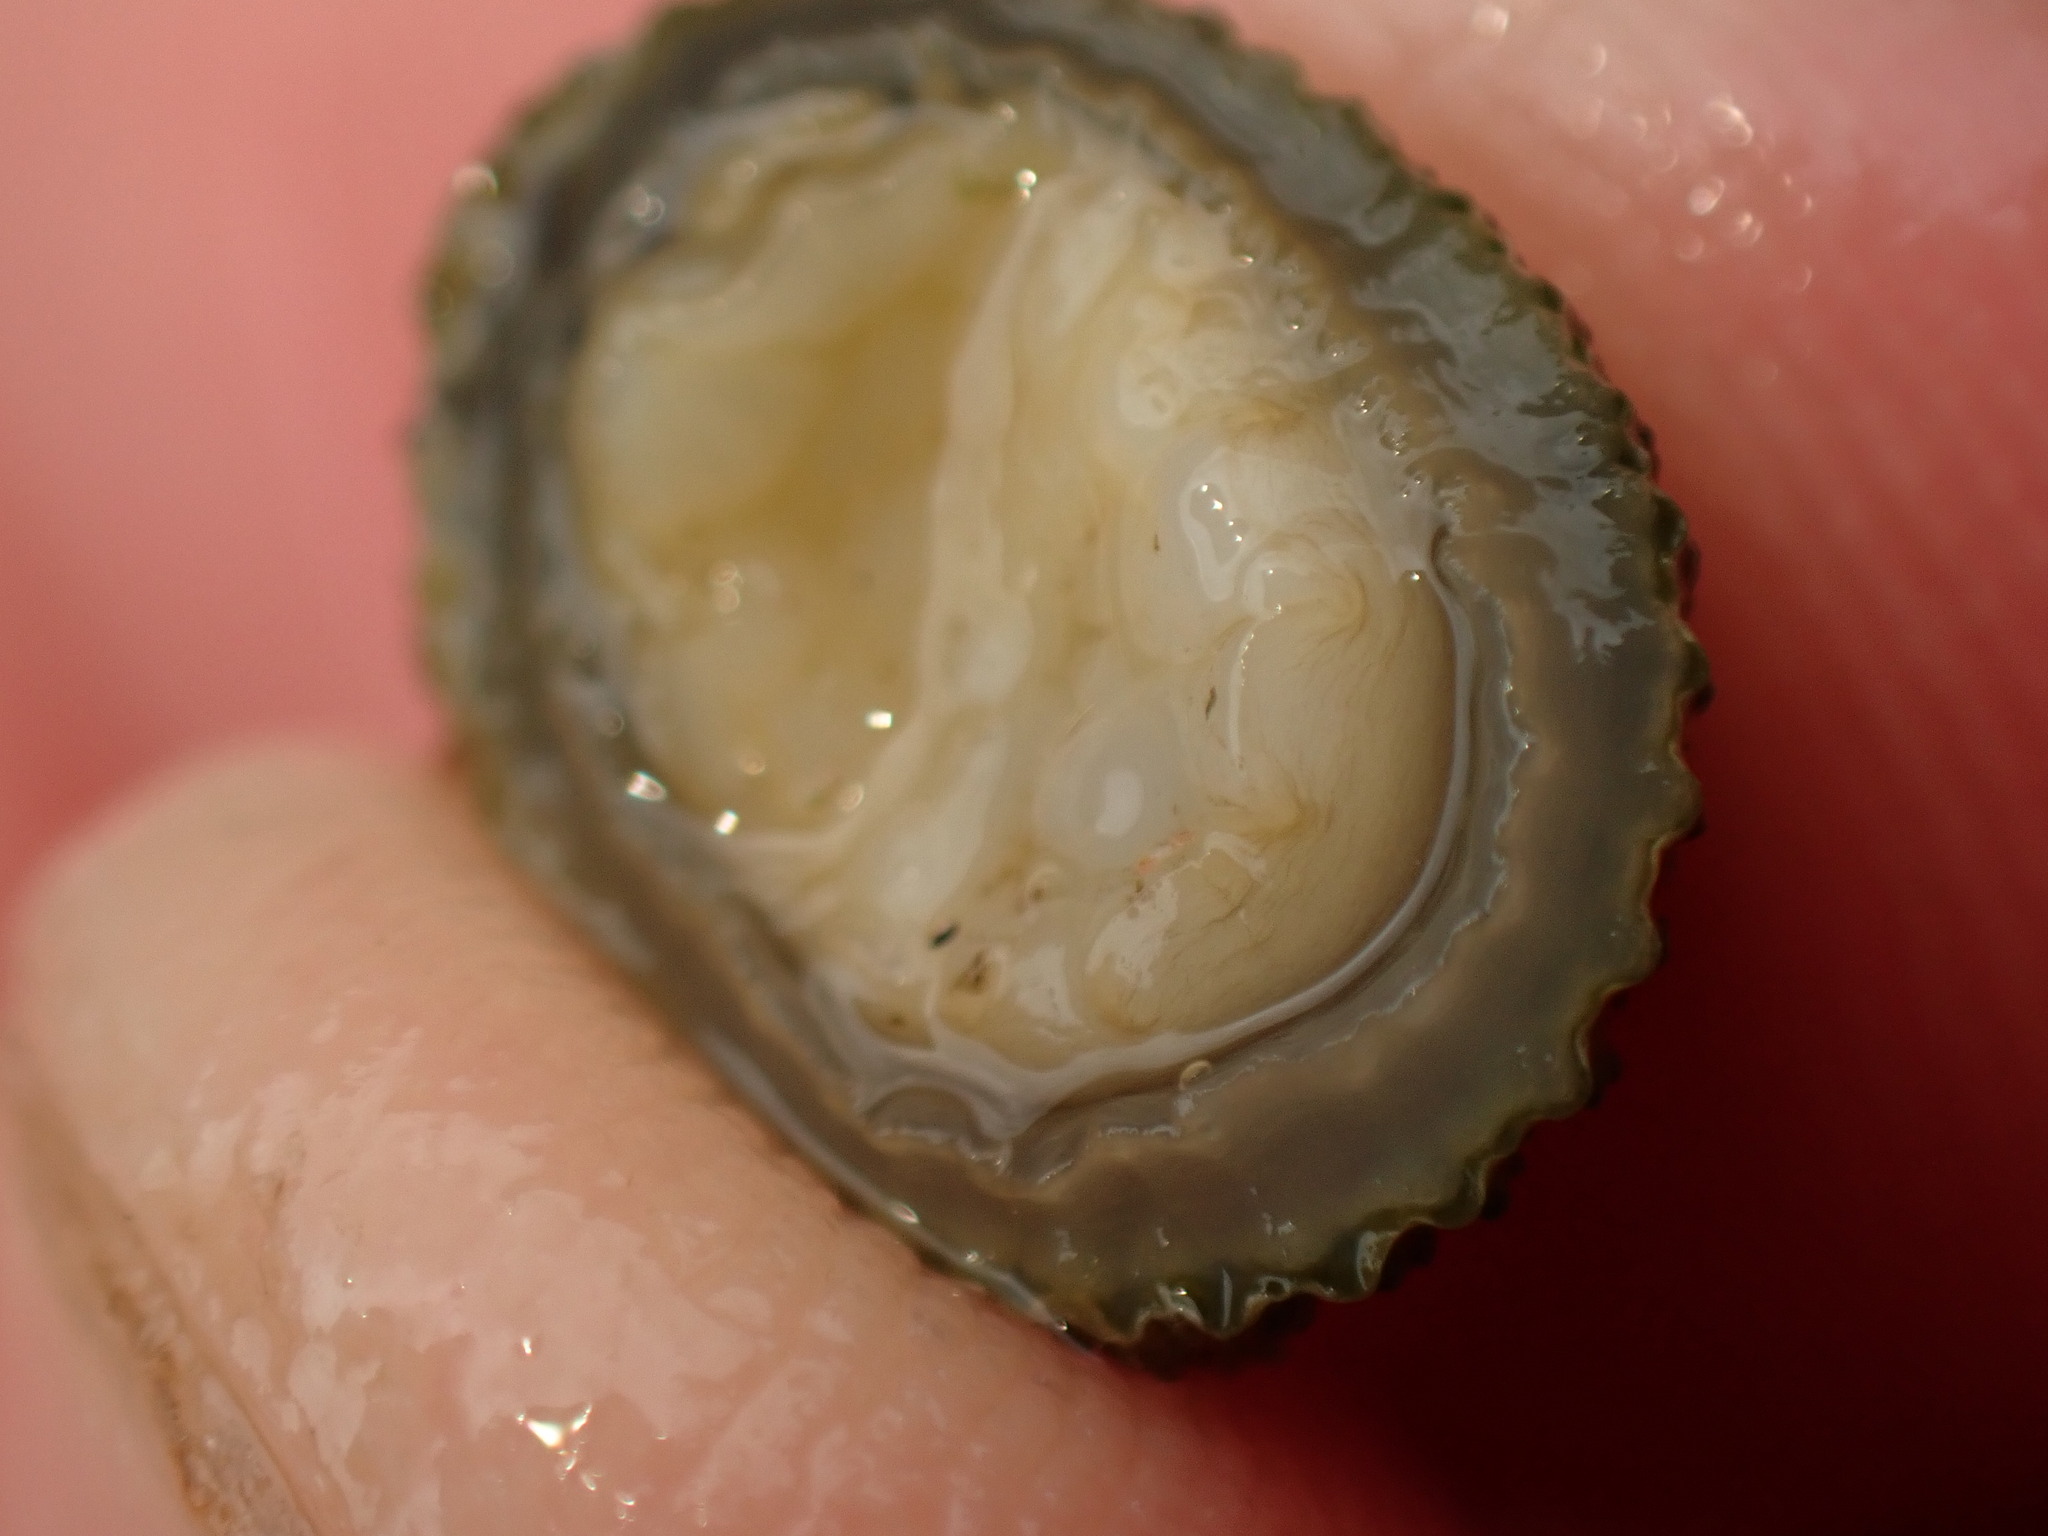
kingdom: Animalia
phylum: Mollusca
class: Gastropoda
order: Lepetellida
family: Fissurellidae
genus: Montfortula
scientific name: Montfortula chathamensis
